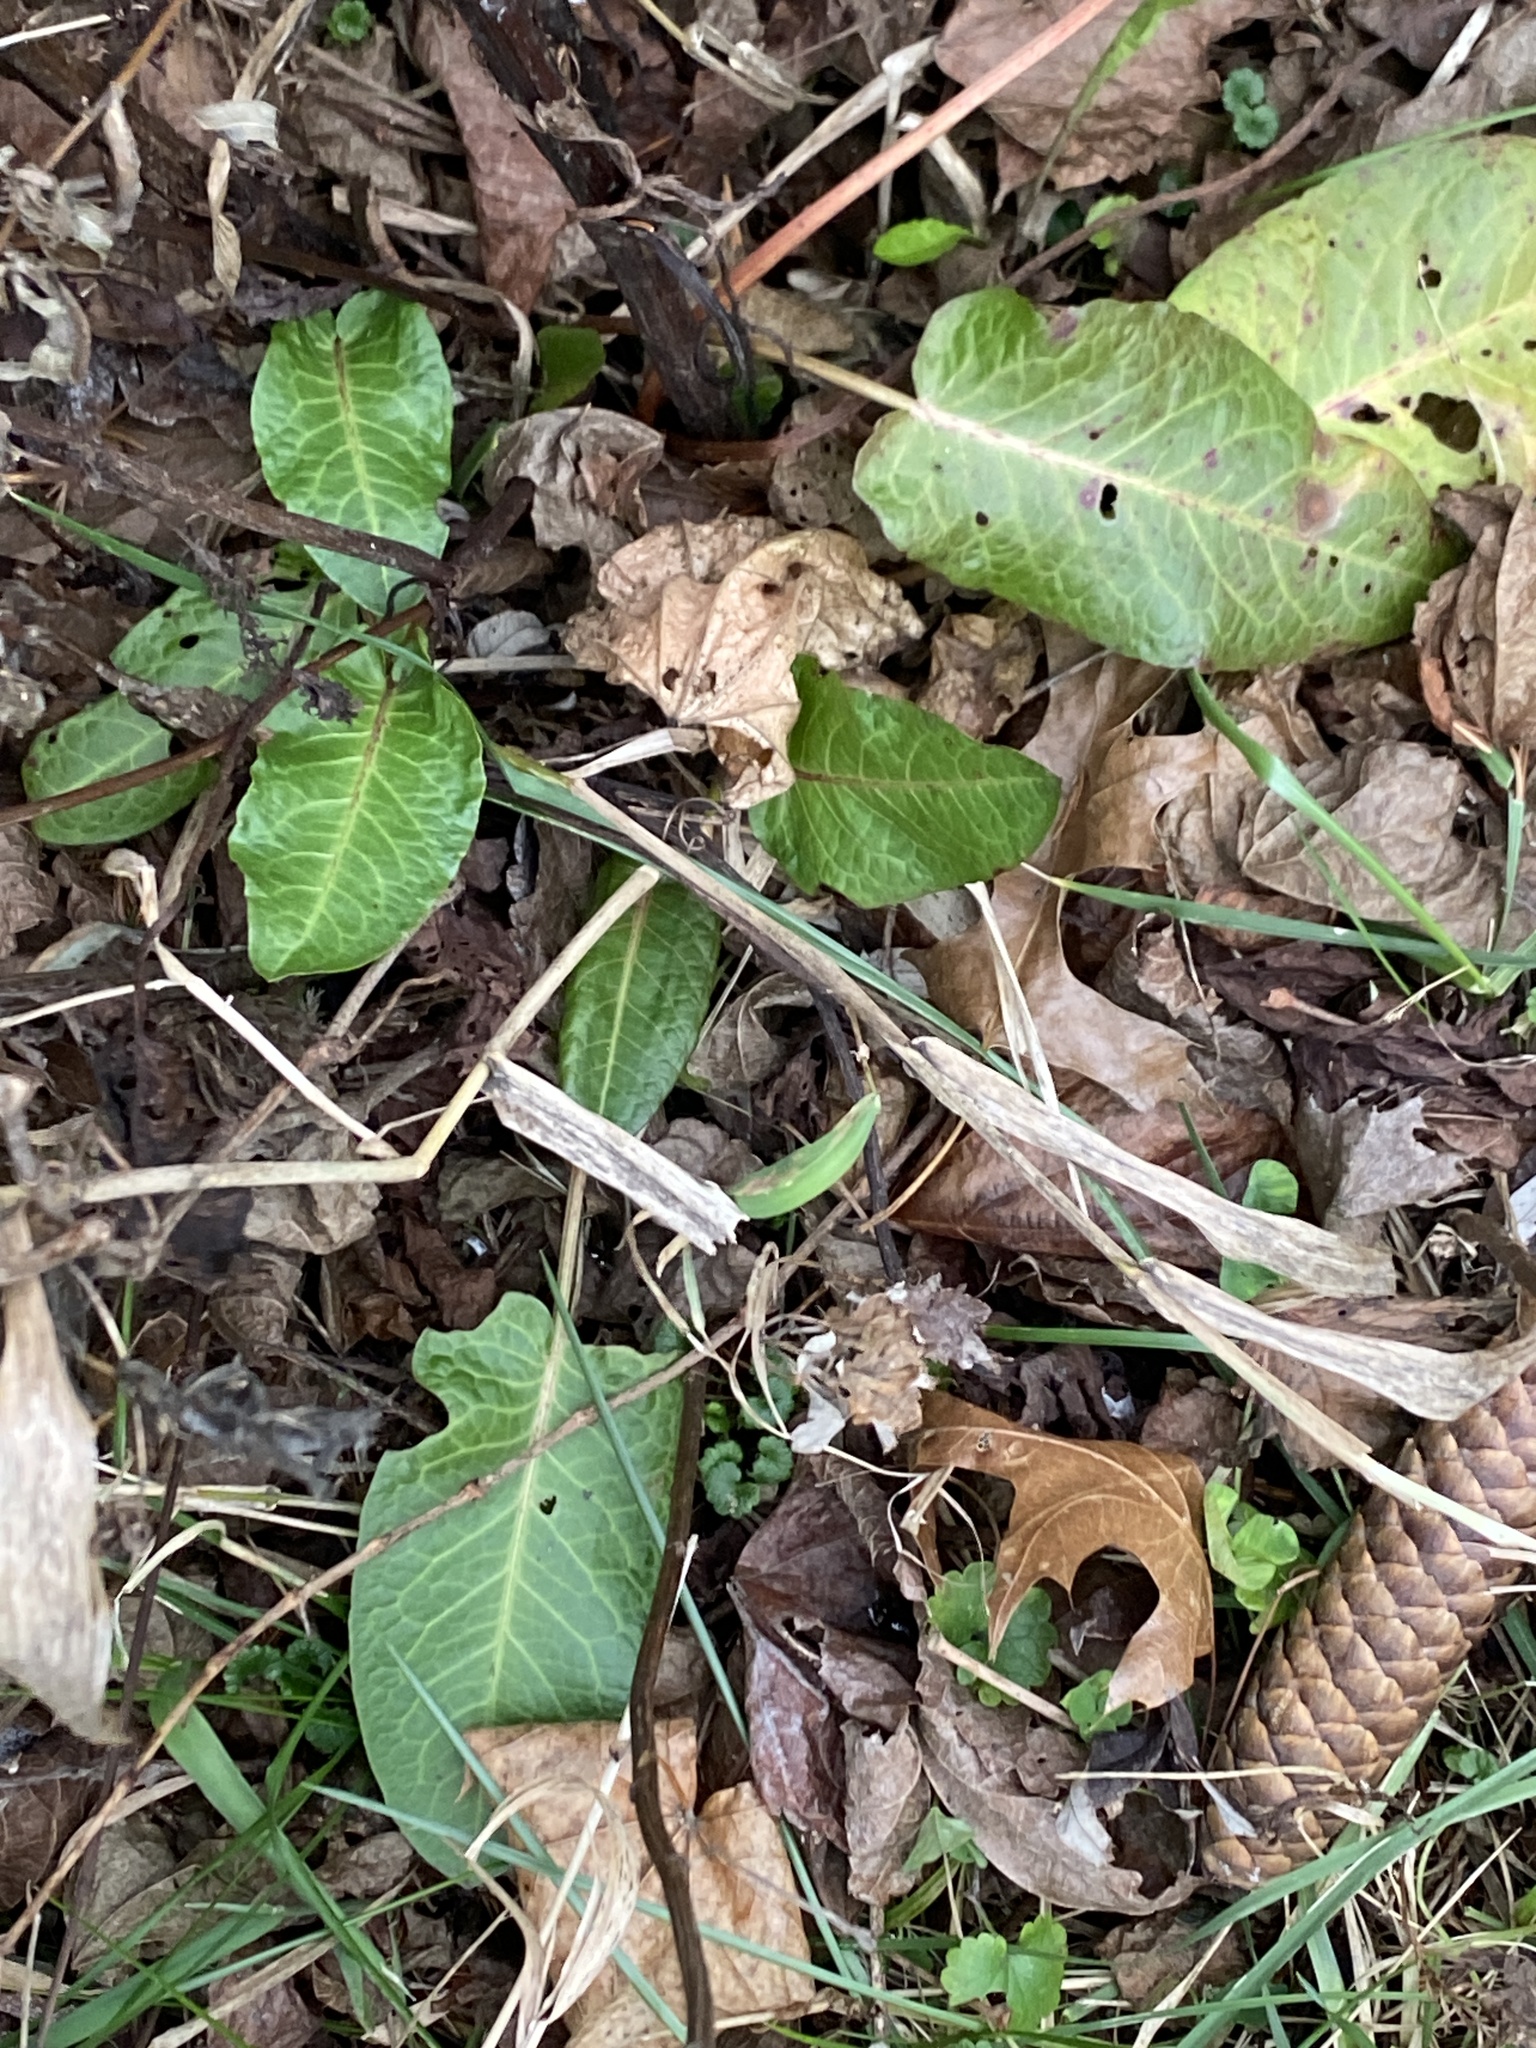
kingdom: Plantae
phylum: Tracheophyta
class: Magnoliopsida
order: Caryophyllales
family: Polygonaceae
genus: Rumex
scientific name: Rumex obtusifolius
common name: Bitter dock
